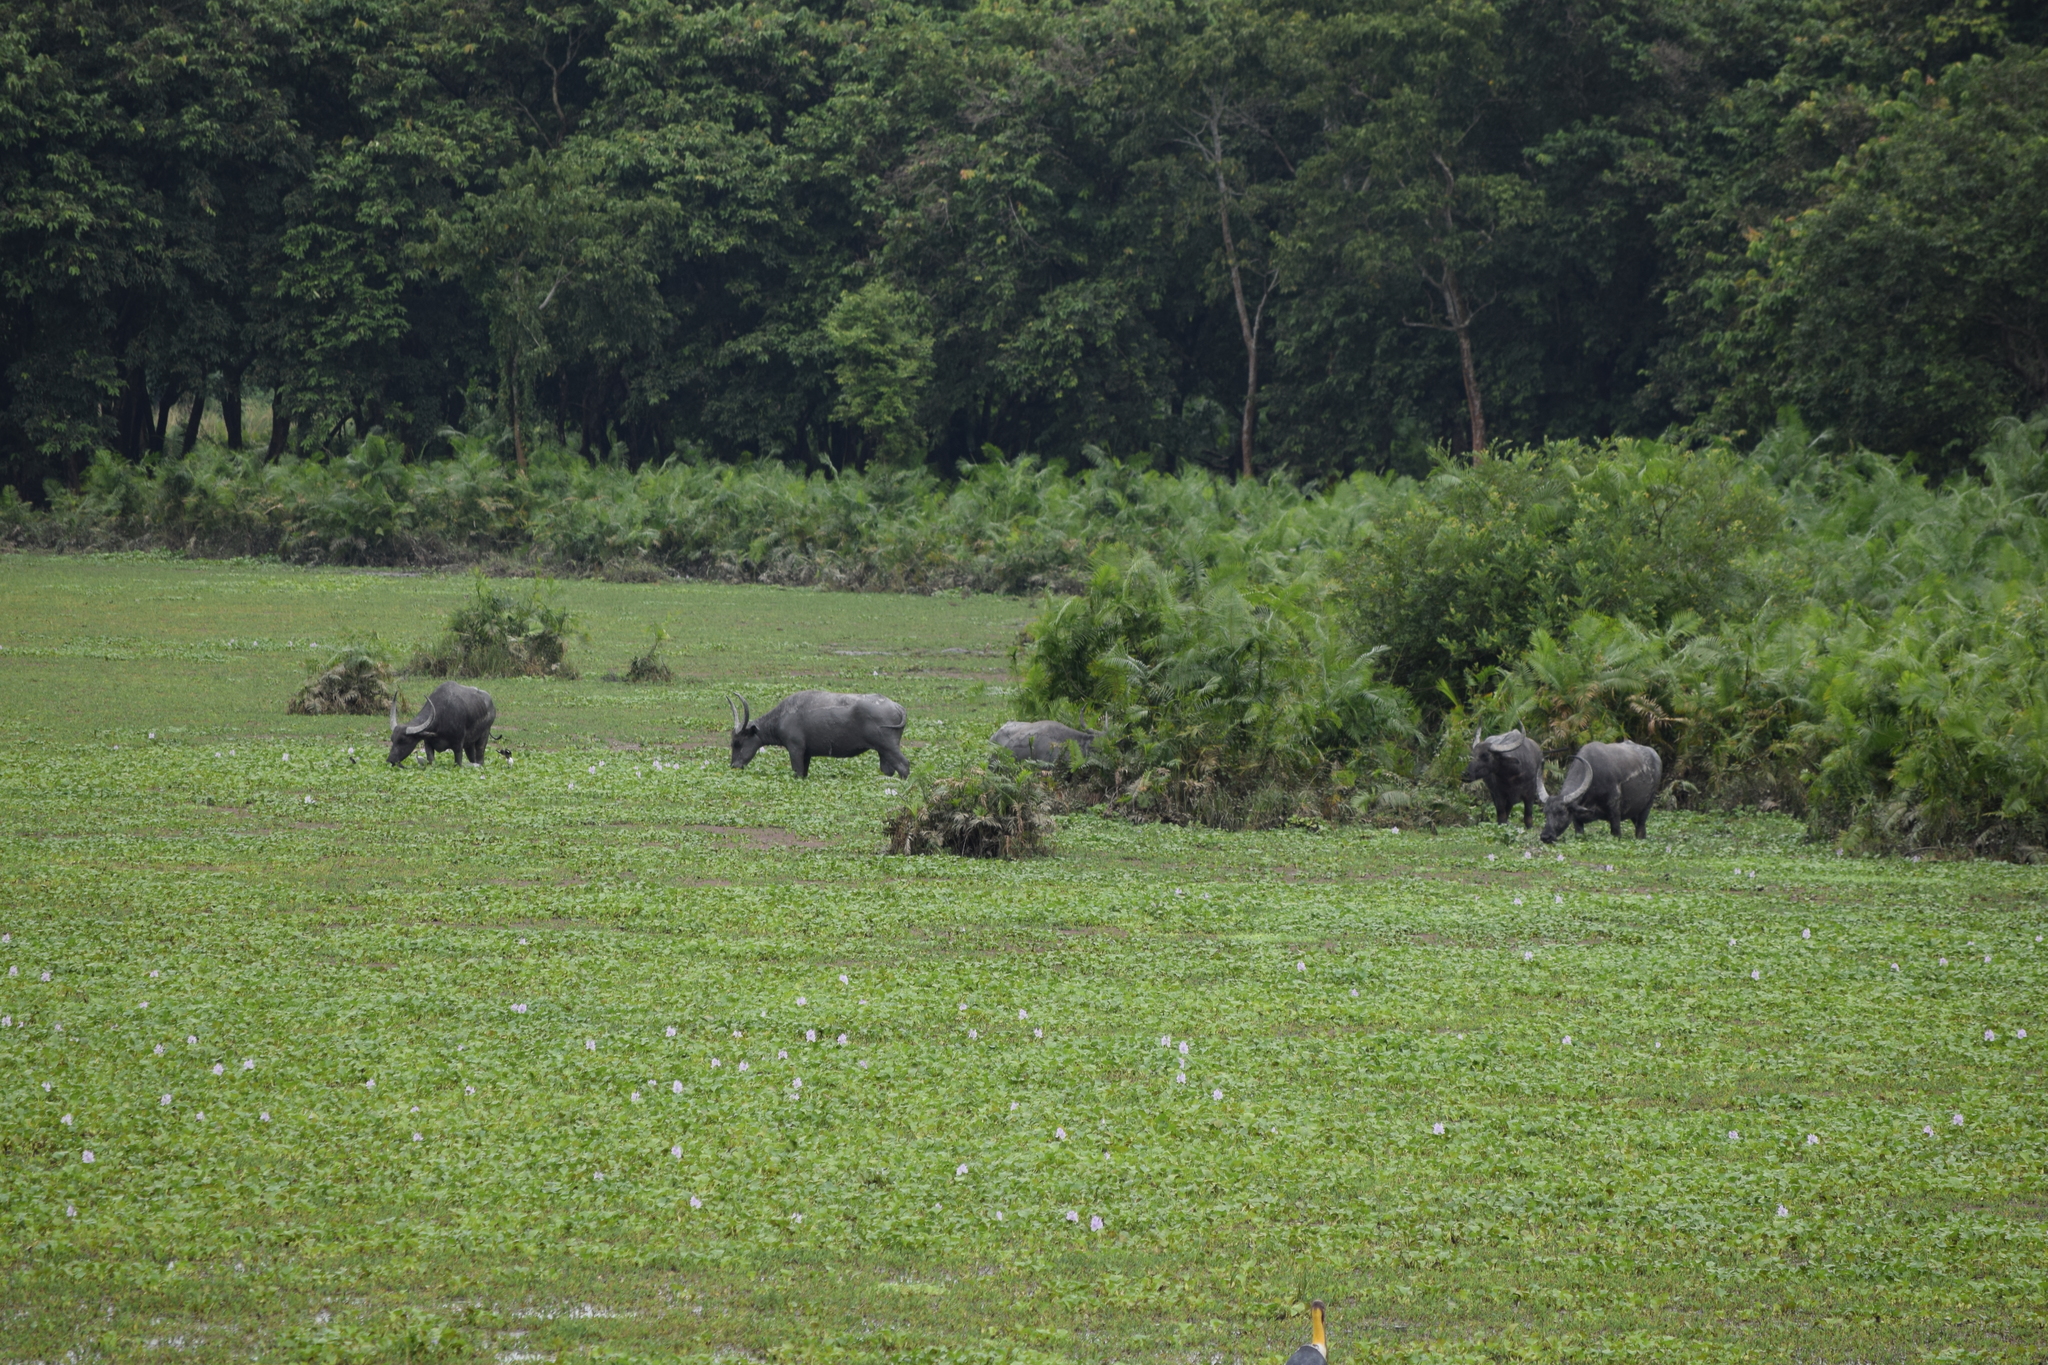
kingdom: Animalia
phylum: Chordata
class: Mammalia
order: Artiodactyla
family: Bovidae
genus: Bubalus
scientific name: Bubalus bubalis
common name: Water buffalo
